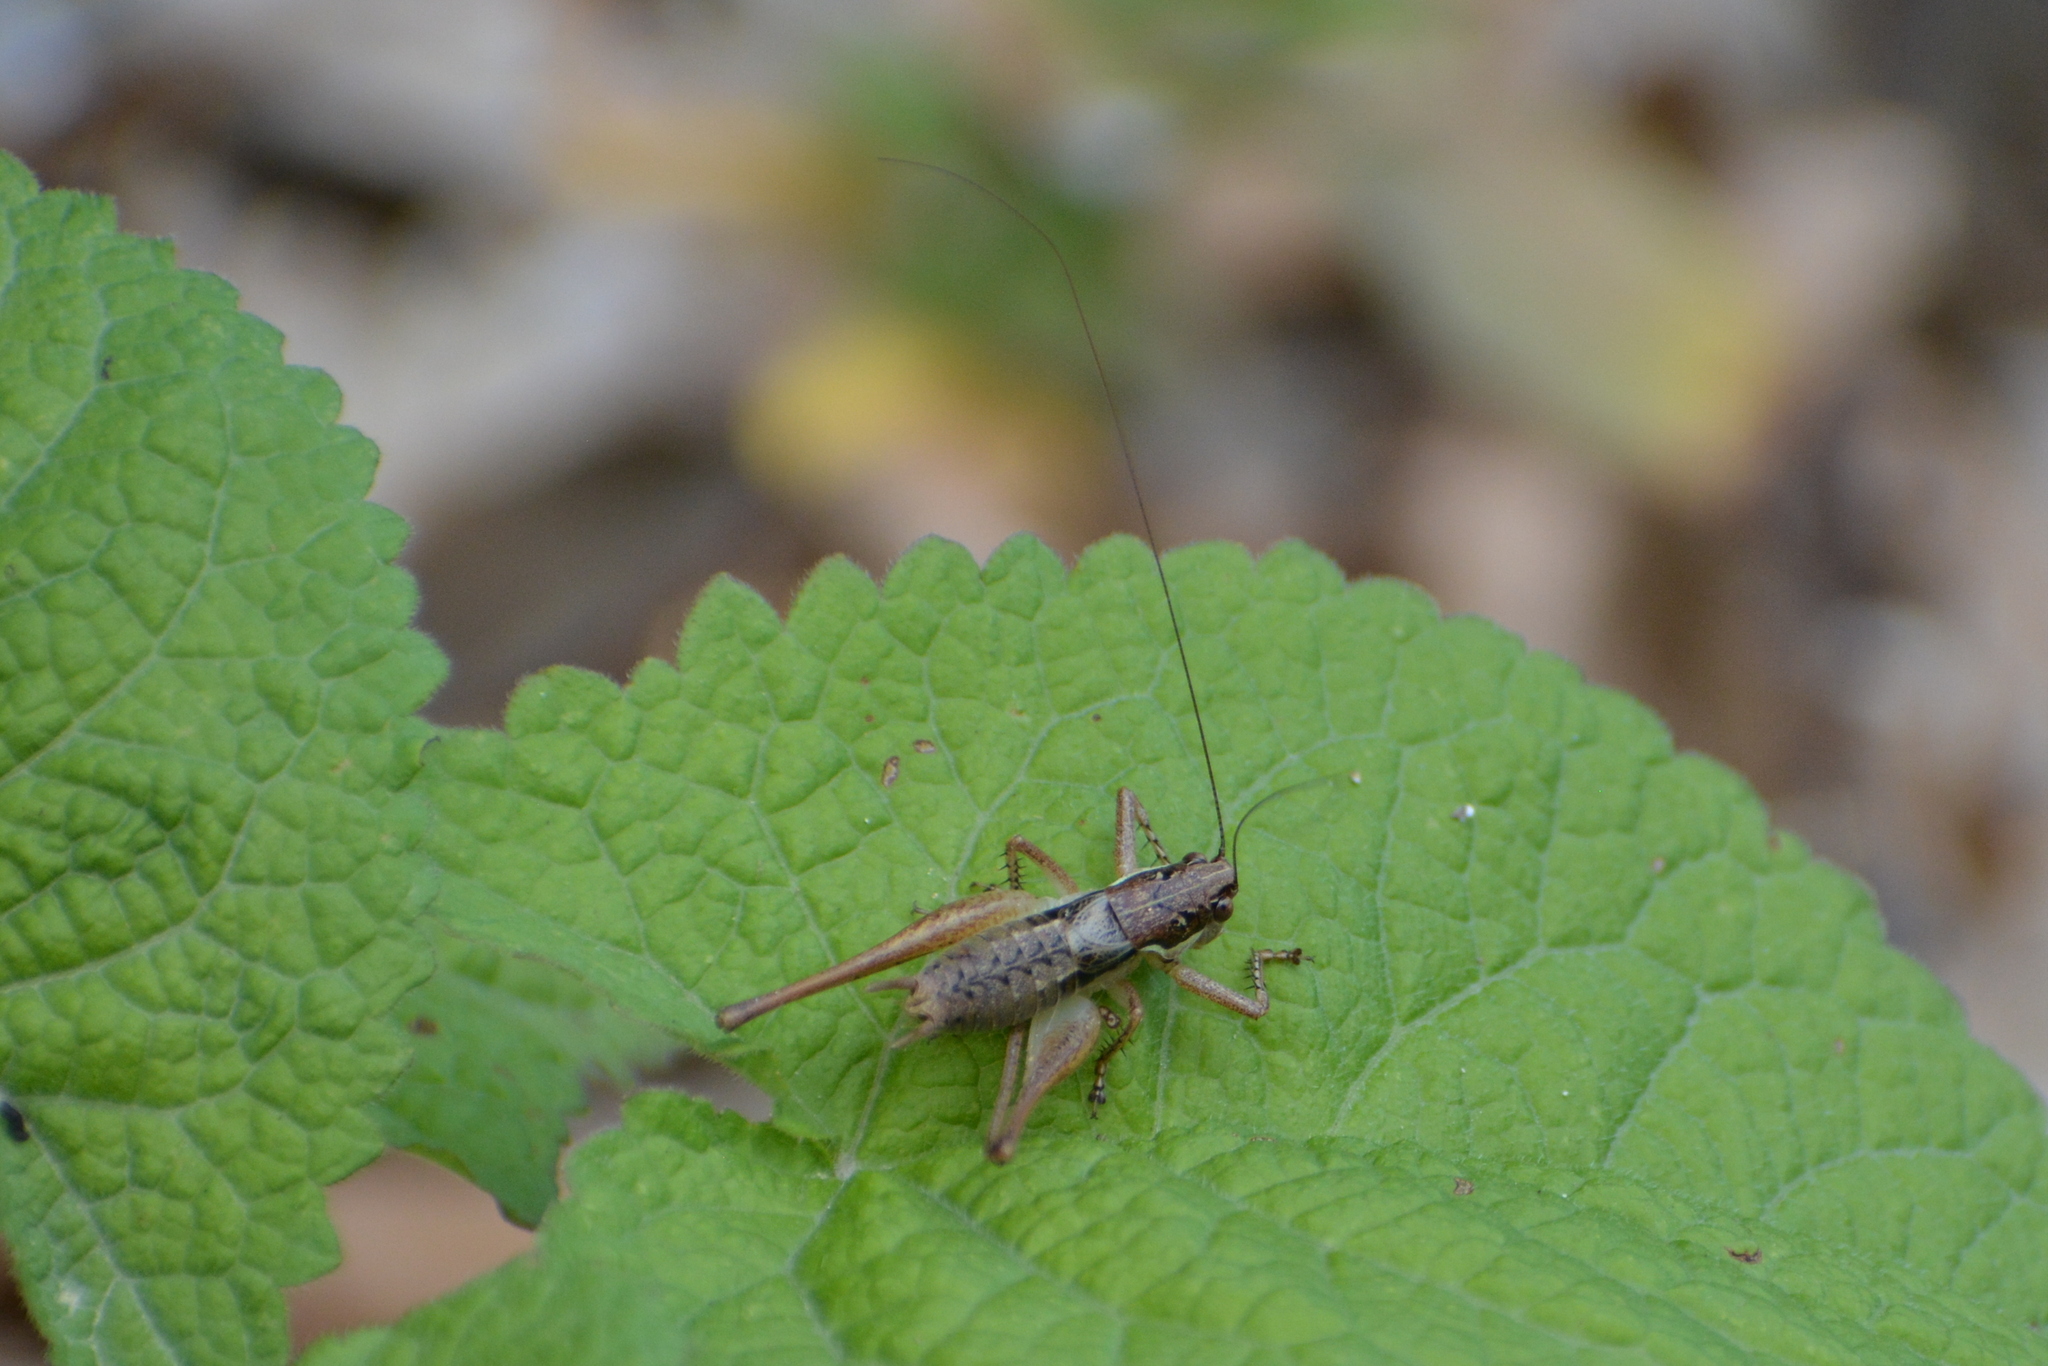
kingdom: Animalia
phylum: Arthropoda
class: Insecta
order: Orthoptera
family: Tettigoniidae
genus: Pachytrachis
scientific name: Pachytrachis gracilis
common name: Graceful bush-cricket
